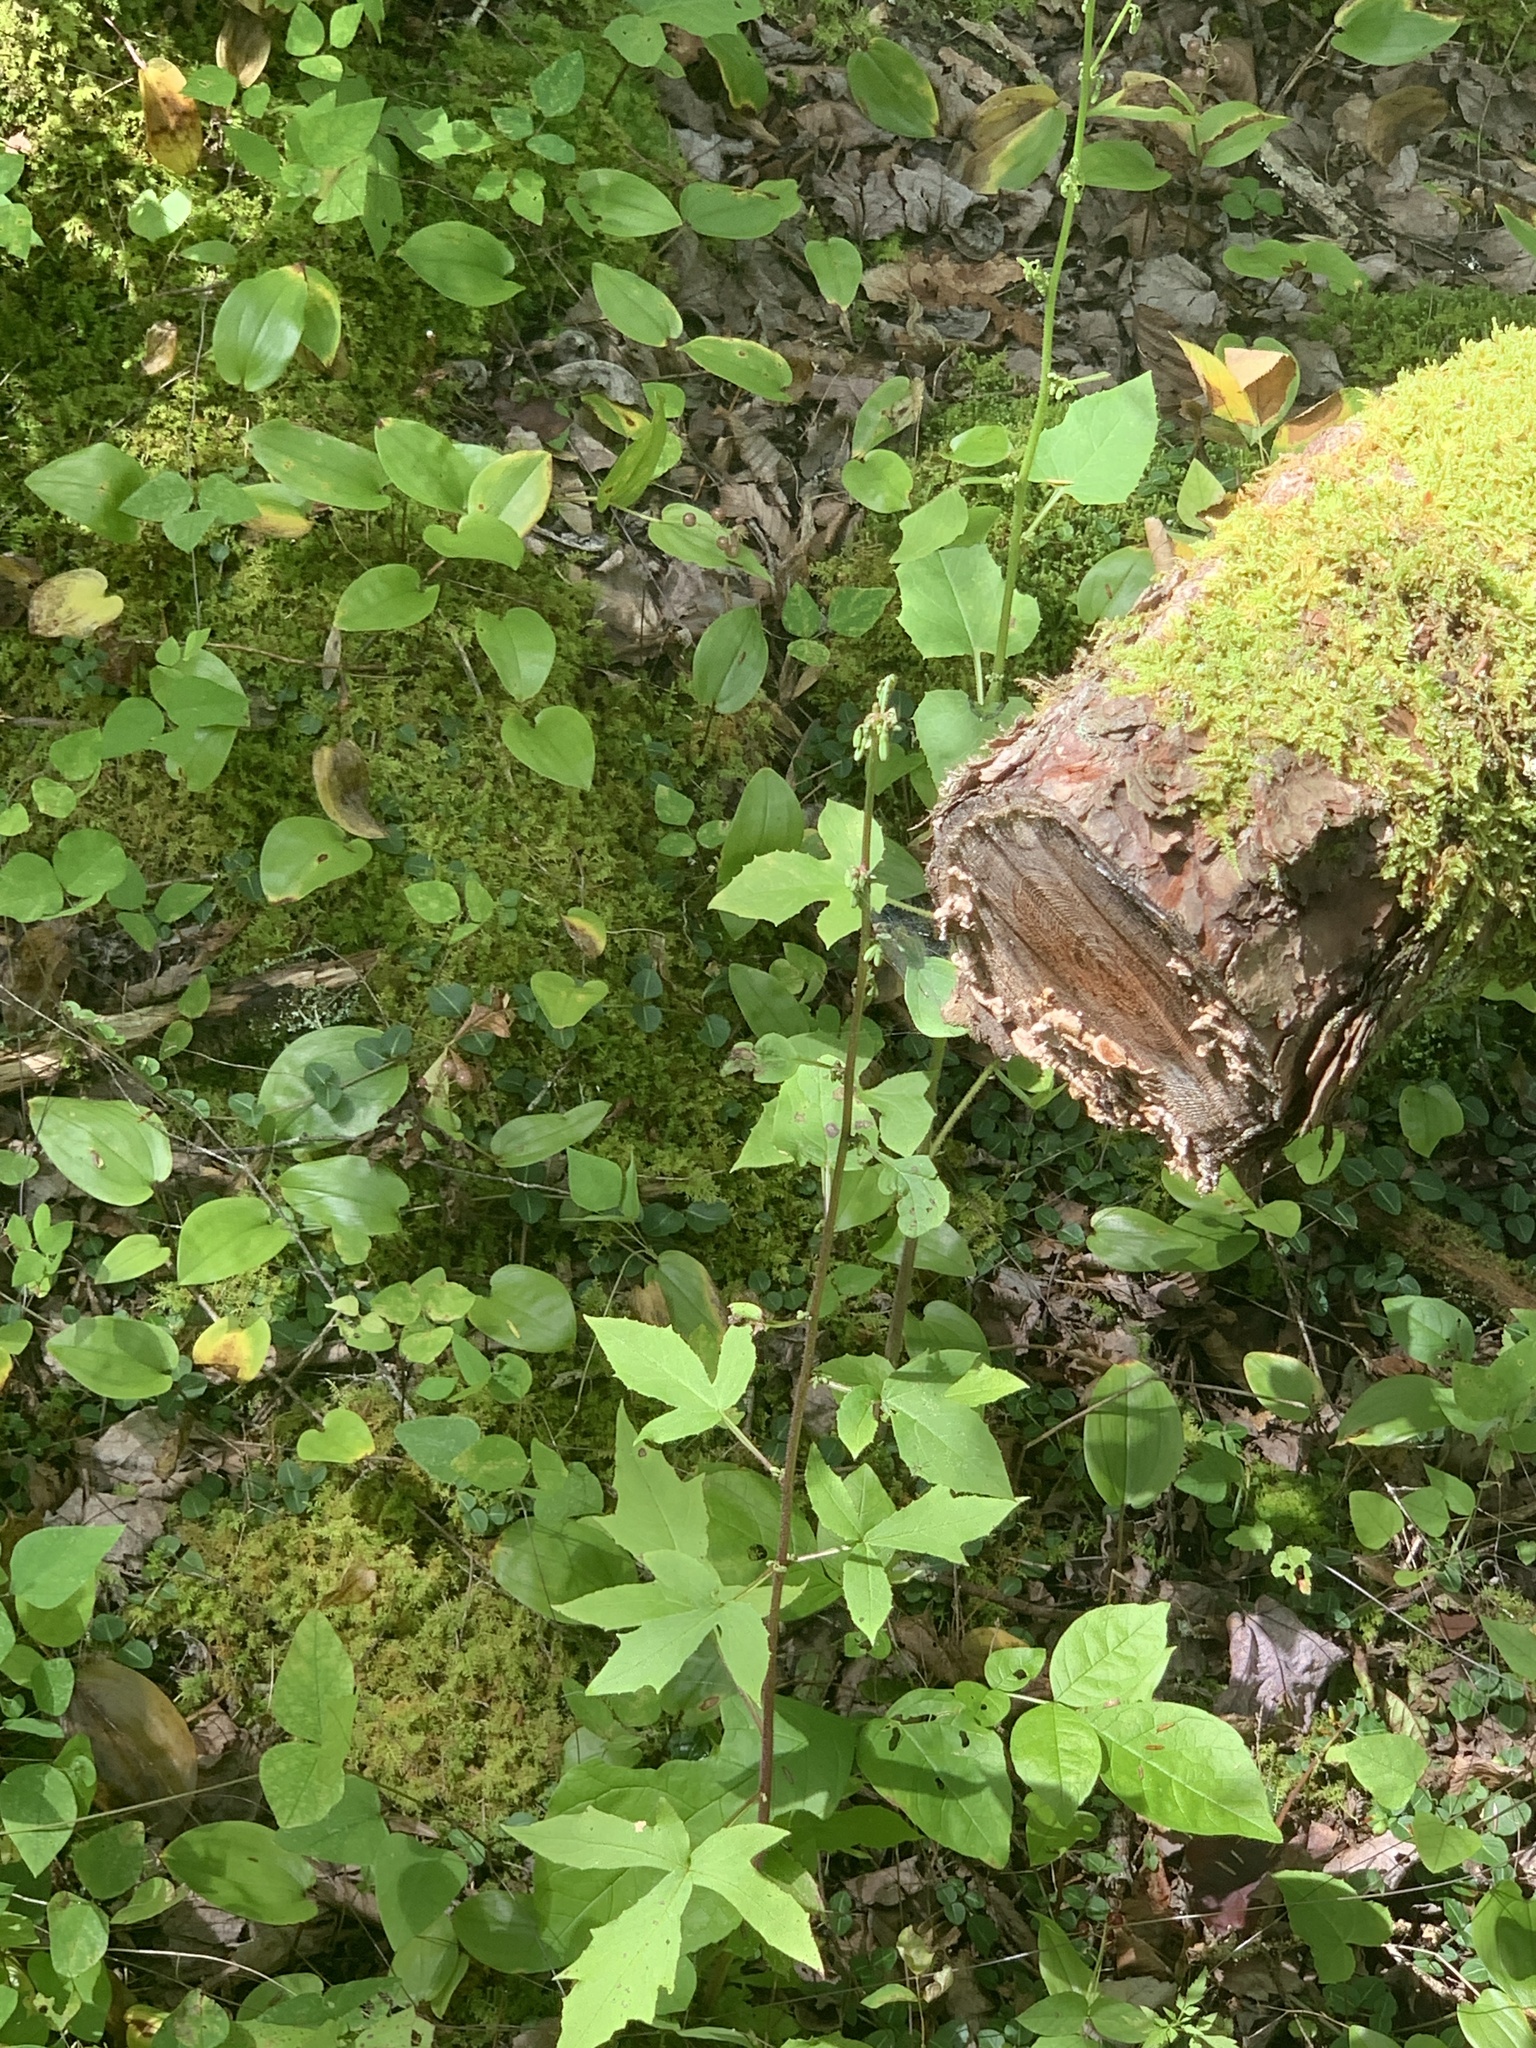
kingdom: Plantae
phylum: Tracheophyta
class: Liliopsida
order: Asparagales
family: Asparagaceae
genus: Maianthemum
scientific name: Maianthemum canadense
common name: False lily-of-the-valley
